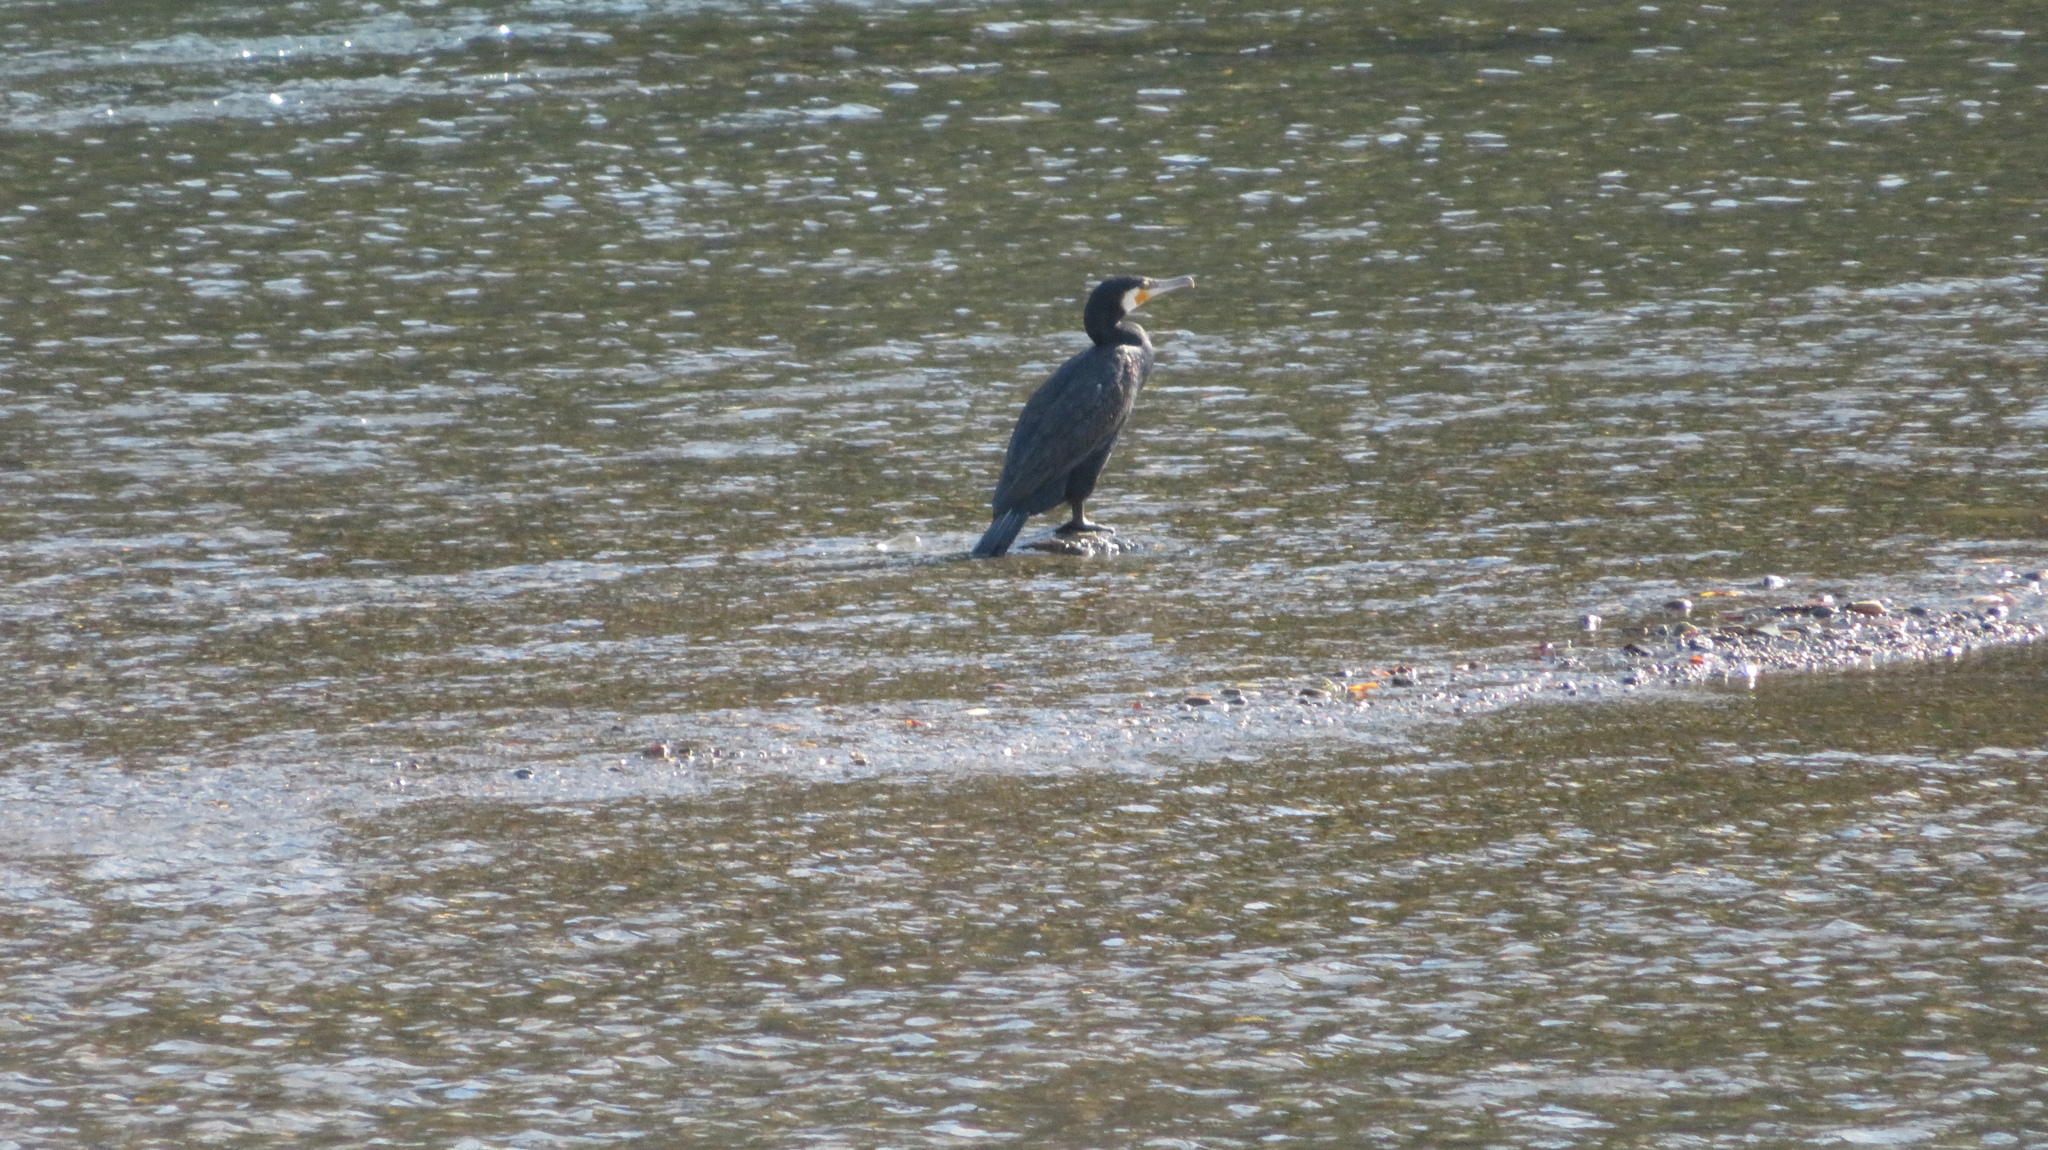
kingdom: Animalia
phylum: Chordata
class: Aves
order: Suliformes
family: Phalacrocoracidae
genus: Phalacrocorax
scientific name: Phalacrocorax carbo
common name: Great cormorant
